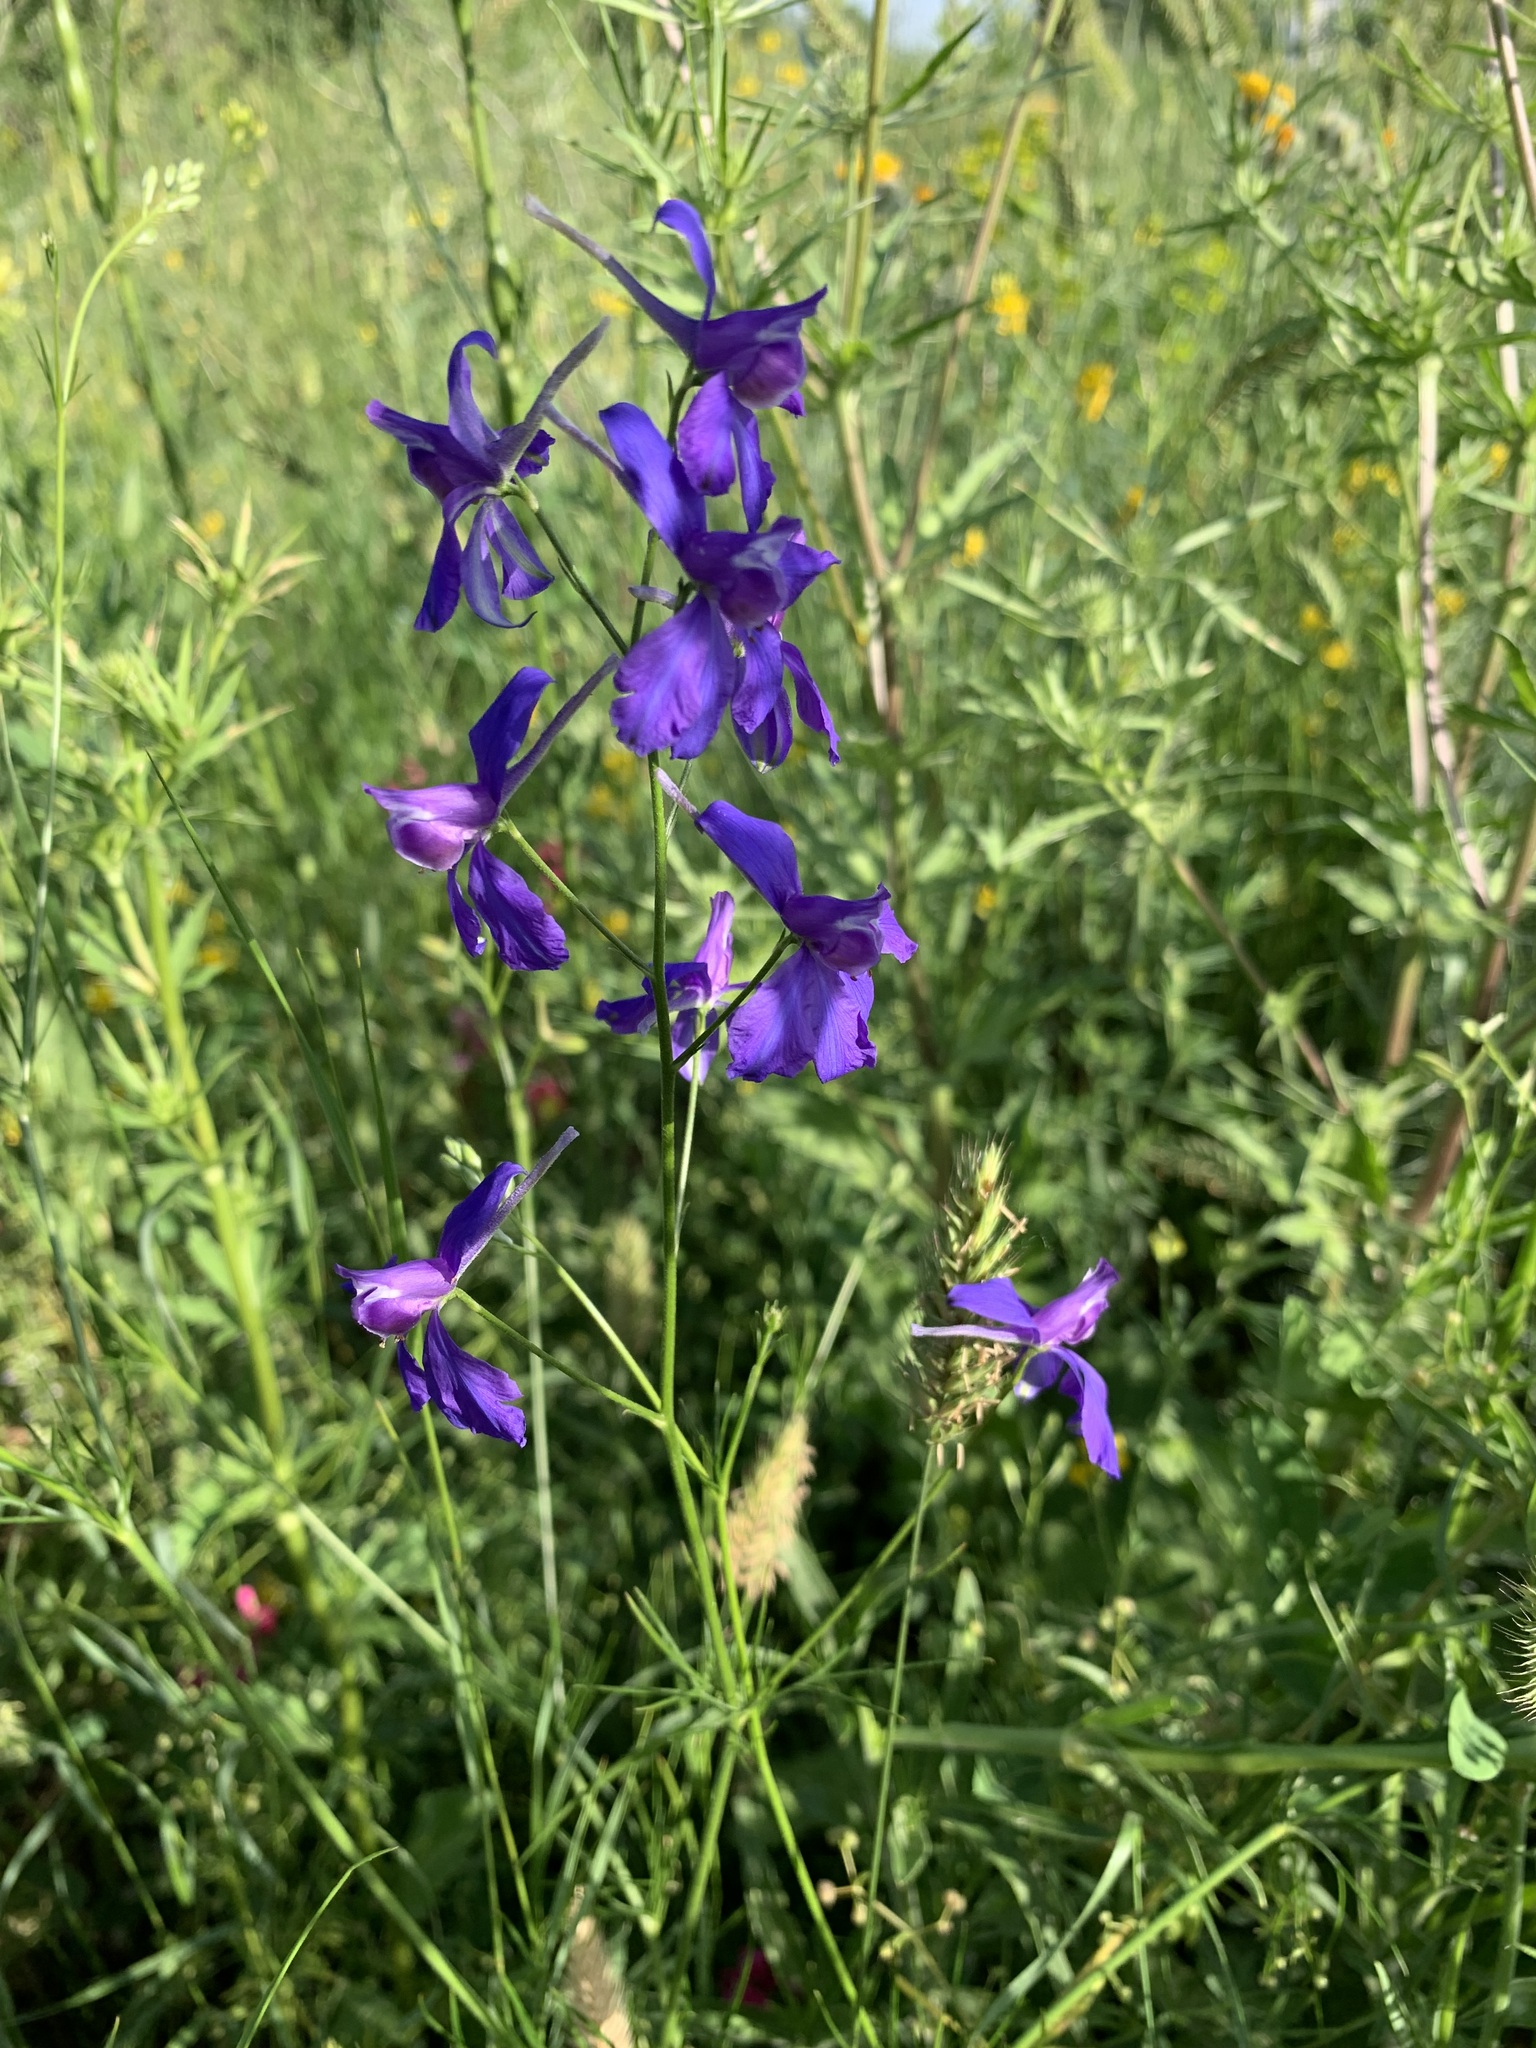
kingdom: Plantae
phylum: Tracheophyta
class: Magnoliopsida
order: Ranunculales
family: Ranunculaceae
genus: Delphinium
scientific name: Delphinium consolida
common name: Branching larkspur
